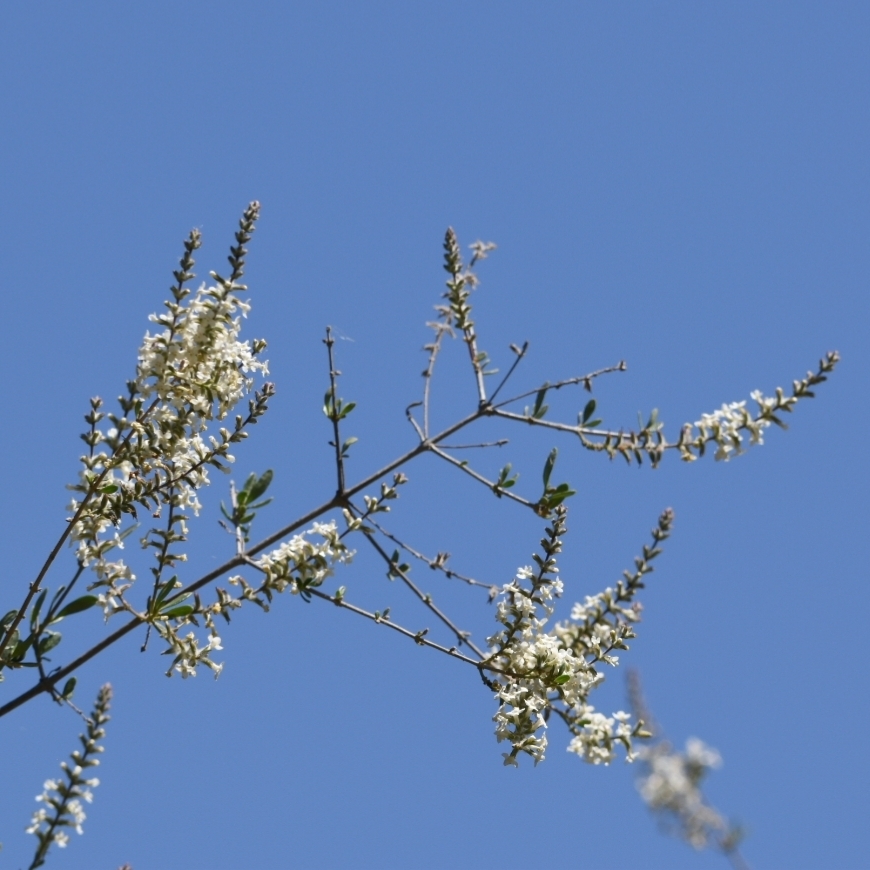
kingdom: Plantae
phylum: Tracheophyta
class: Magnoliopsida
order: Lamiales
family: Verbenaceae
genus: Aloysia
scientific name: Aloysia gratissima
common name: Common bee-brush
